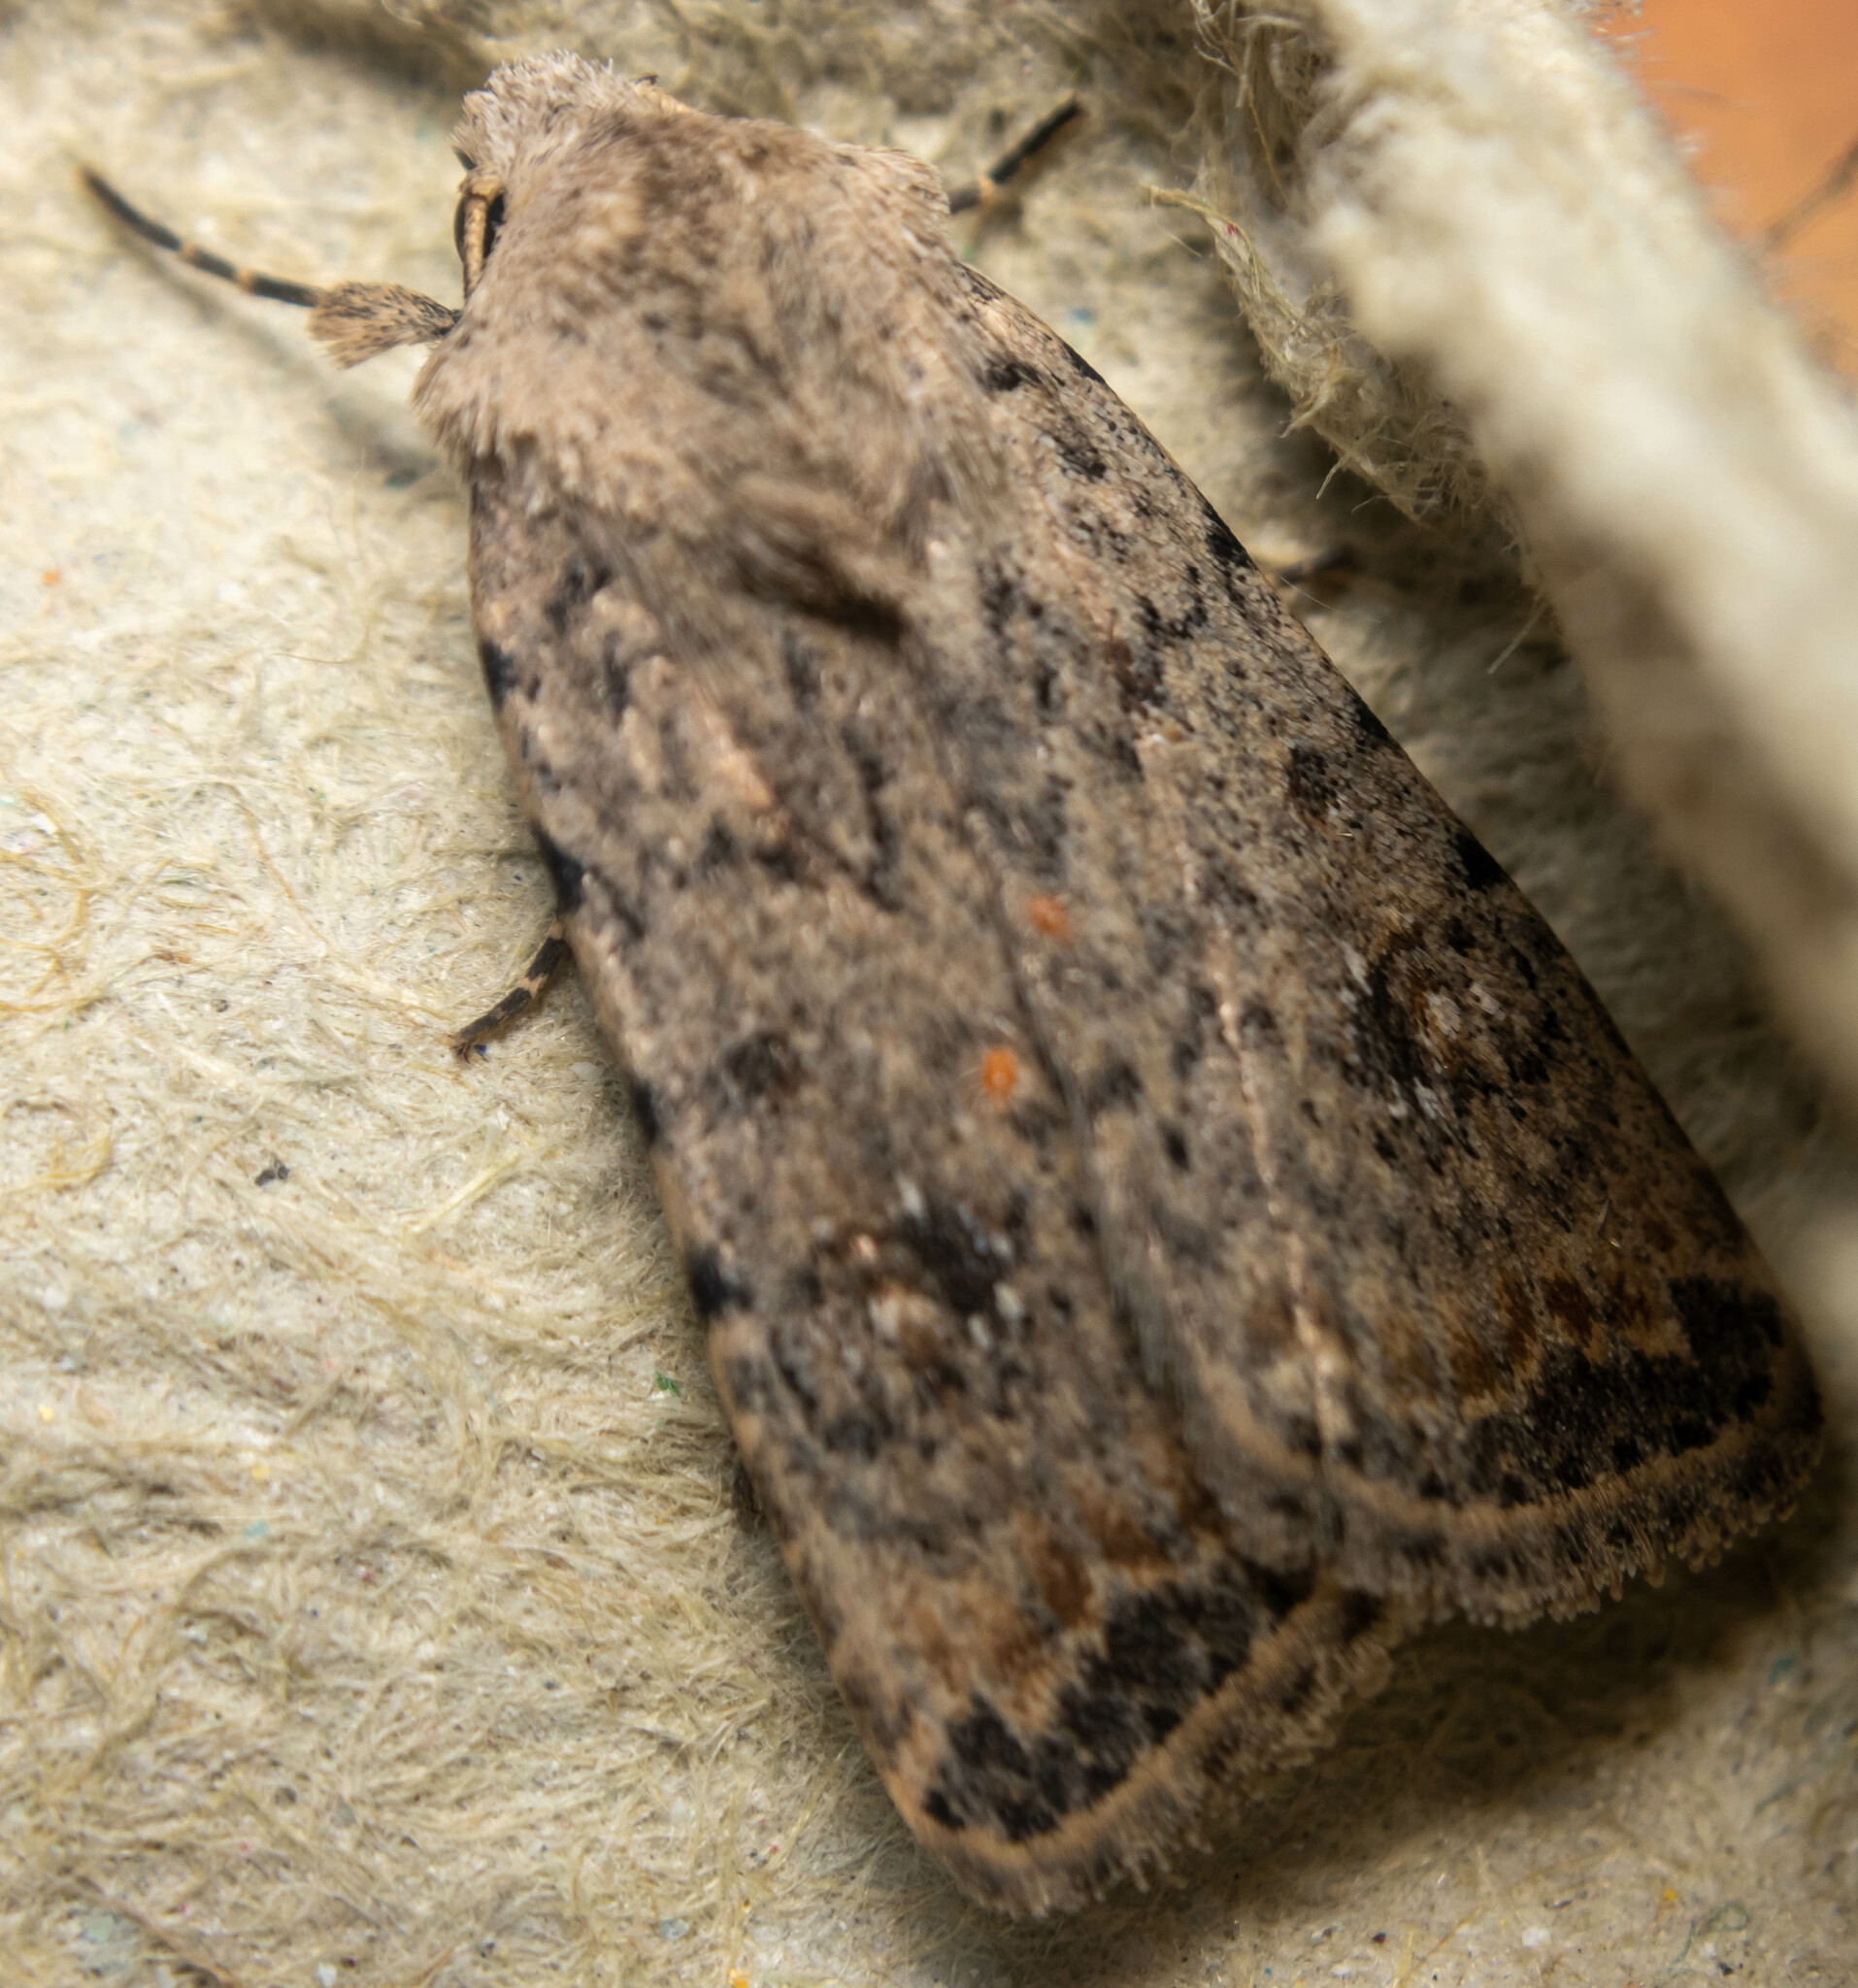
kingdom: Animalia
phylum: Arthropoda
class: Insecta
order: Lepidoptera
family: Noctuidae
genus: Caradrina
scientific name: Caradrina clavipalpis
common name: Pale mottled willow
